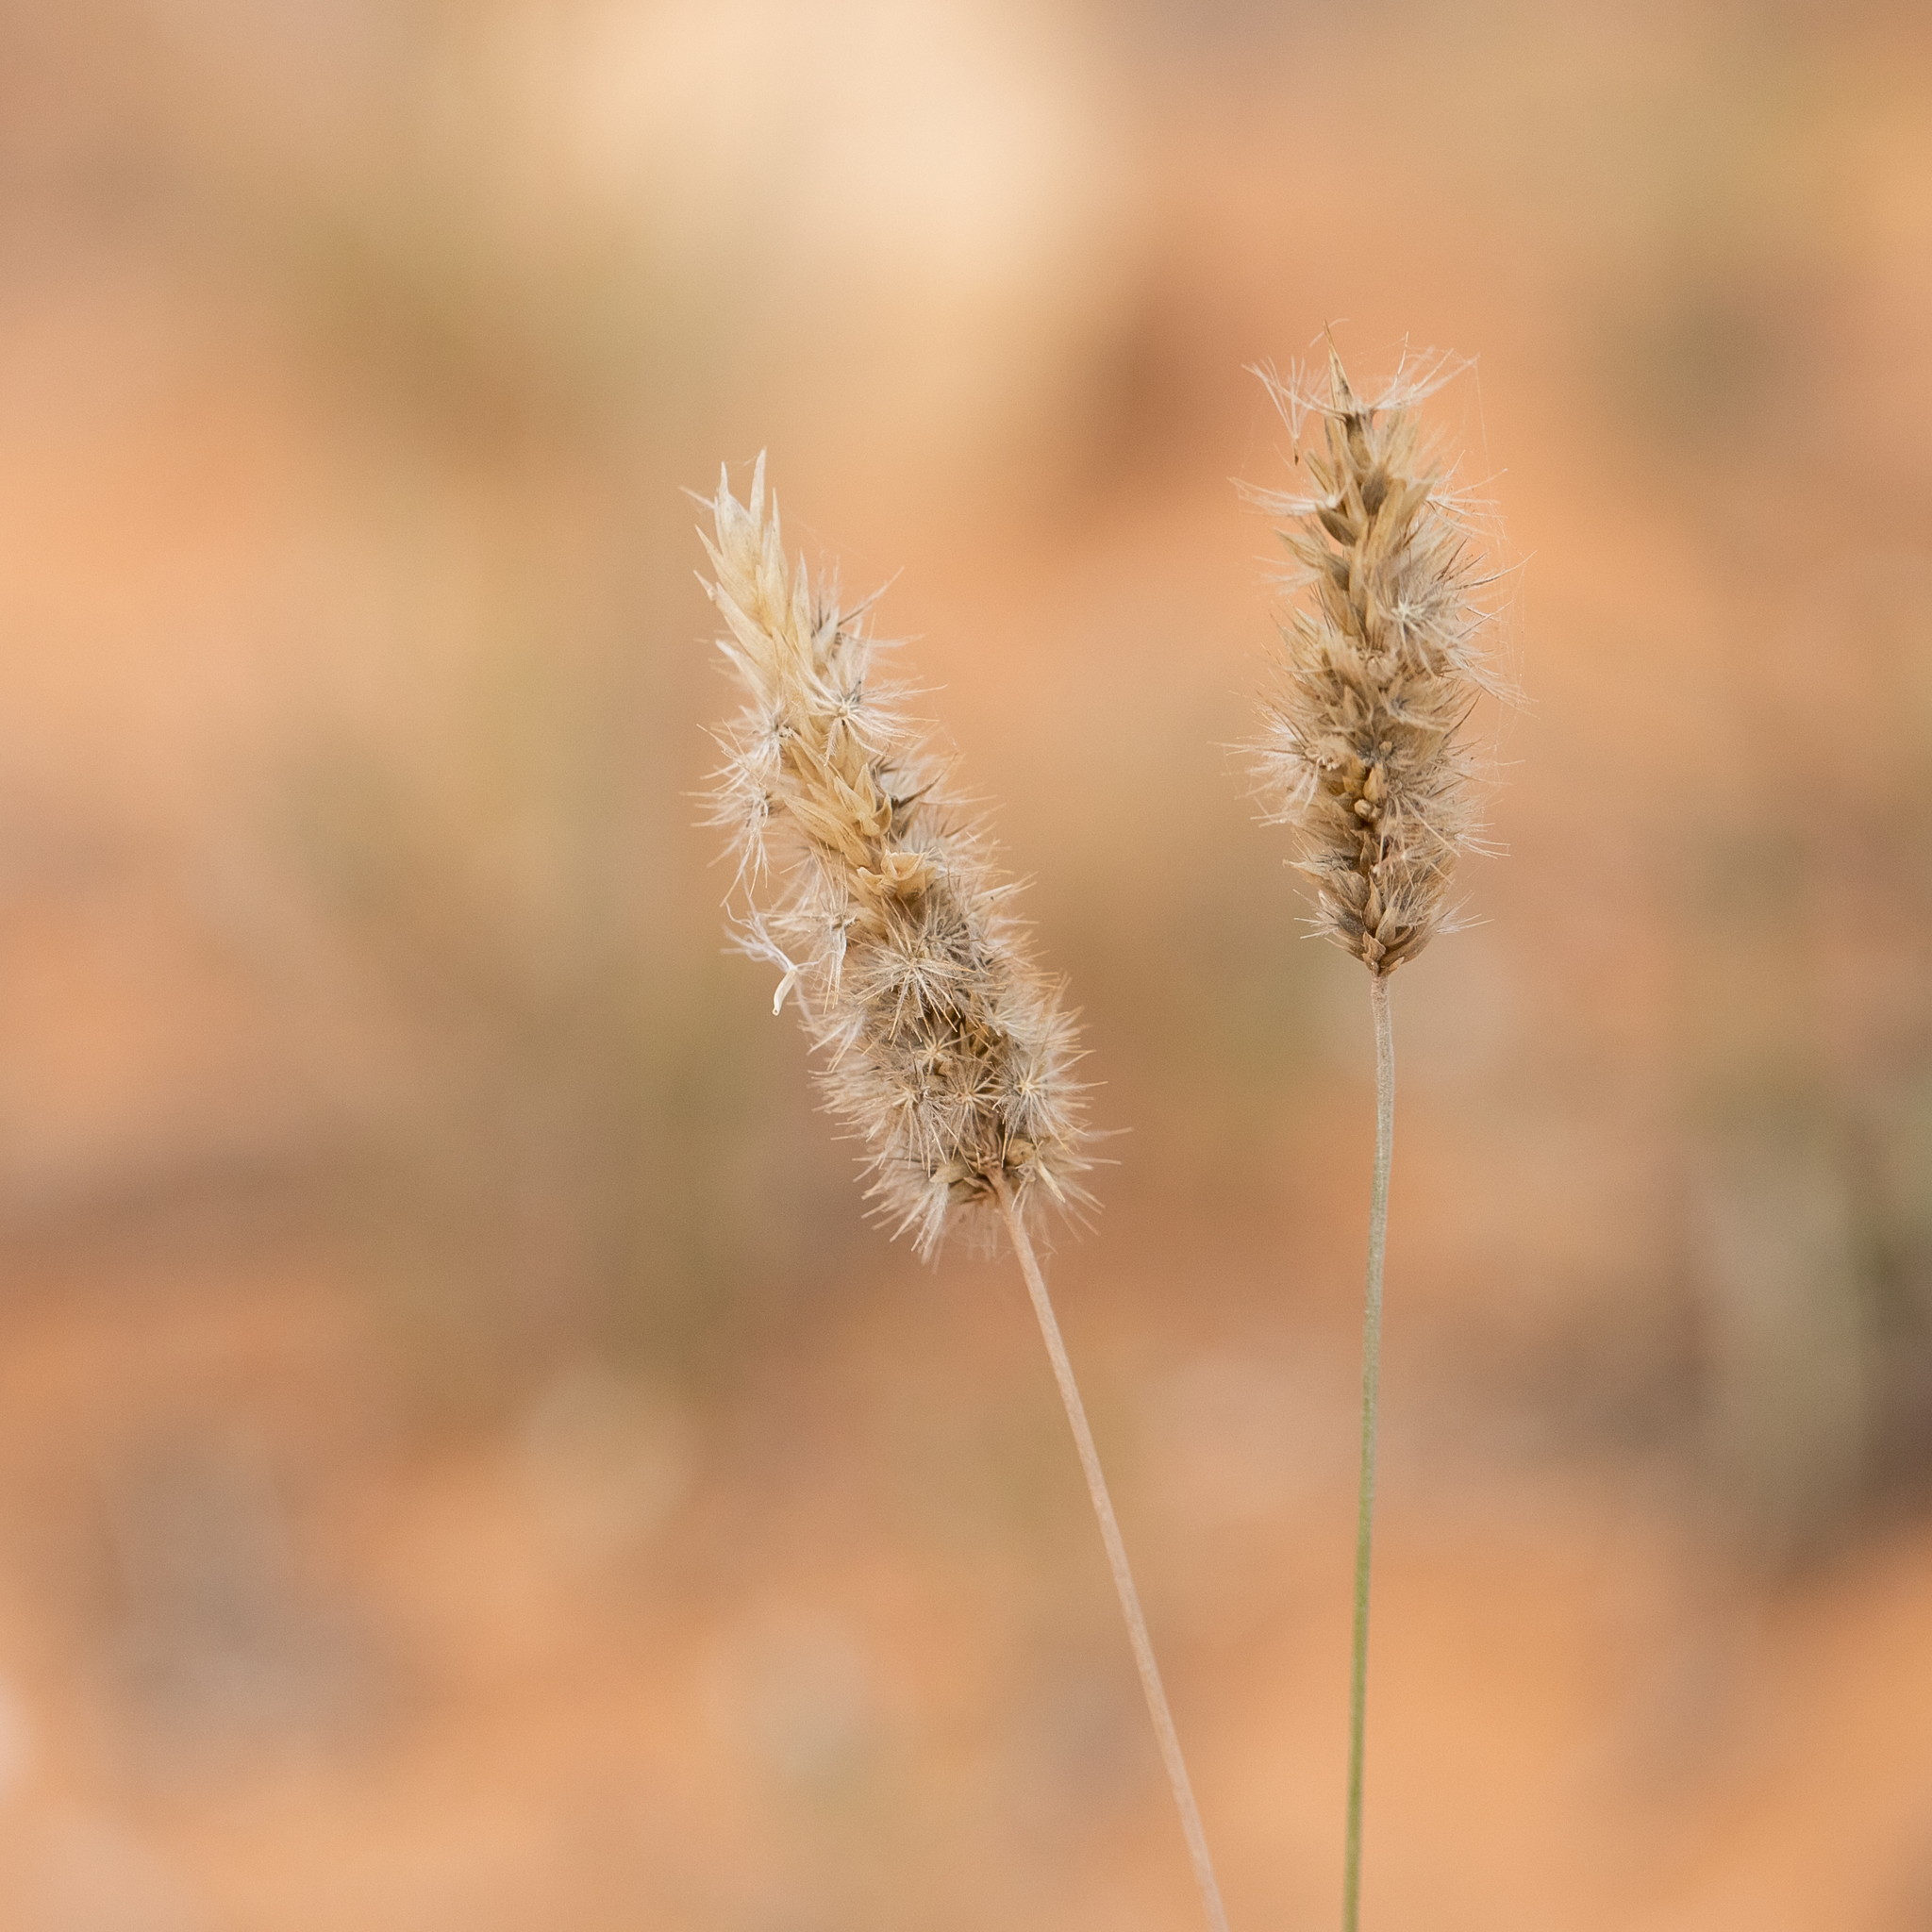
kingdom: Plantae
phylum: Tracheophyta
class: Liliopsida
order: Poales
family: Poaceae
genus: Enneapogon
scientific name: Enneapogon nigricans
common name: Pappus grass
